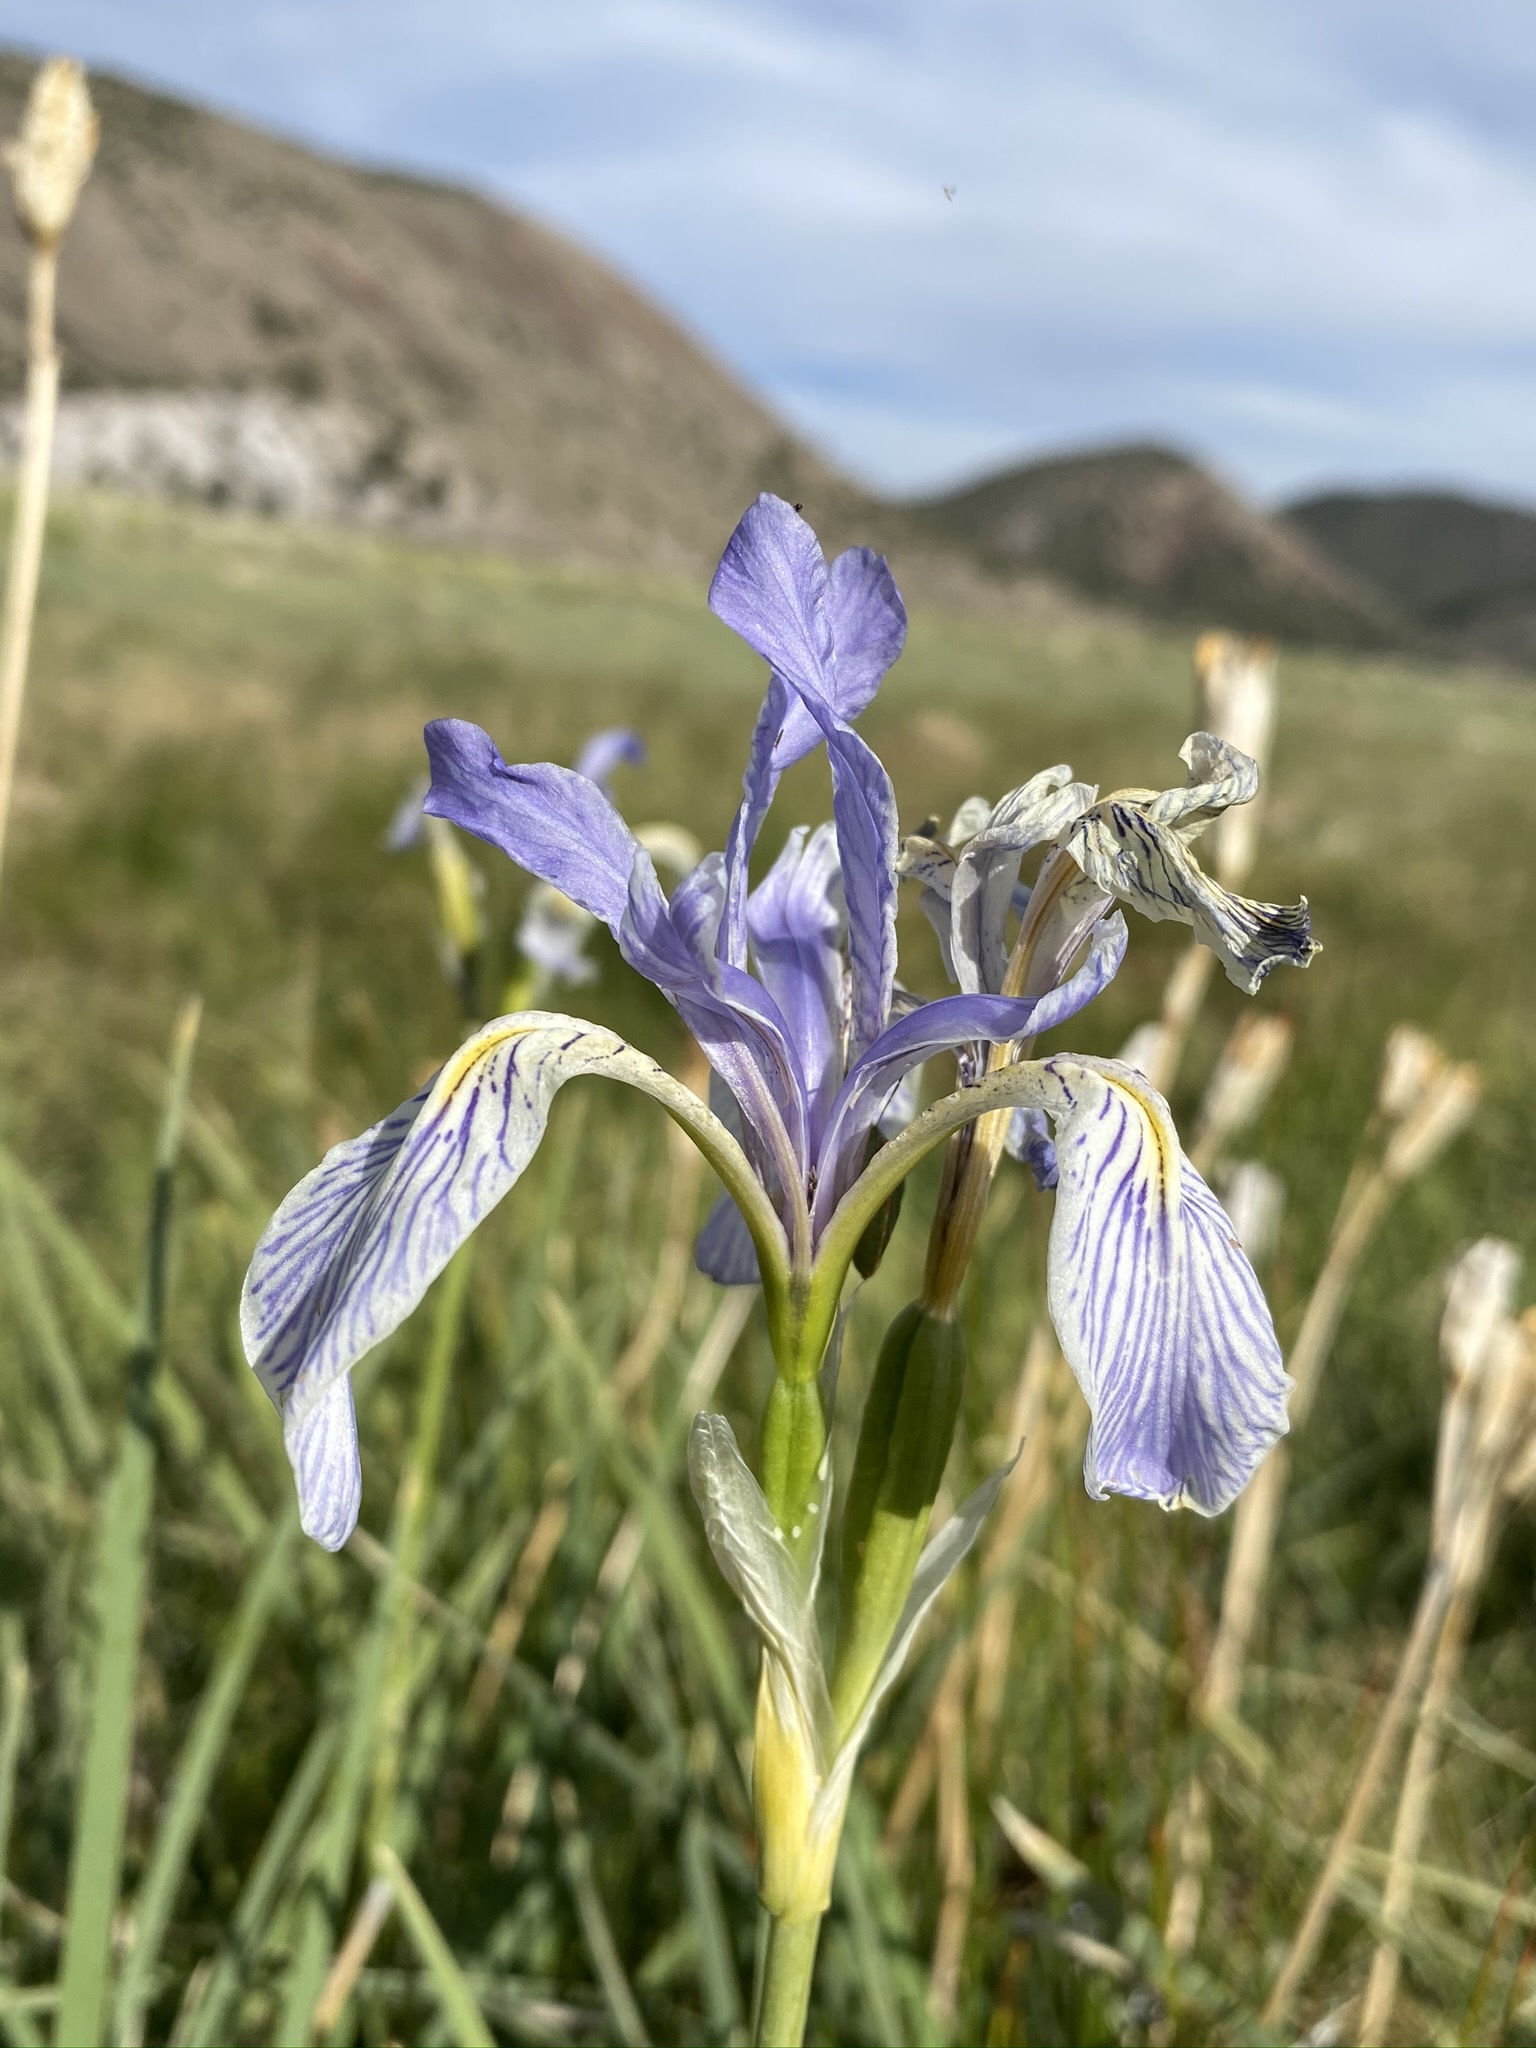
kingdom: Plantae
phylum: Tracheophyta
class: Liliopsida
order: Asparagales
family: Iridaceae
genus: Iris
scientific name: Iris missouriensis
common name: Rocky mountain iris
